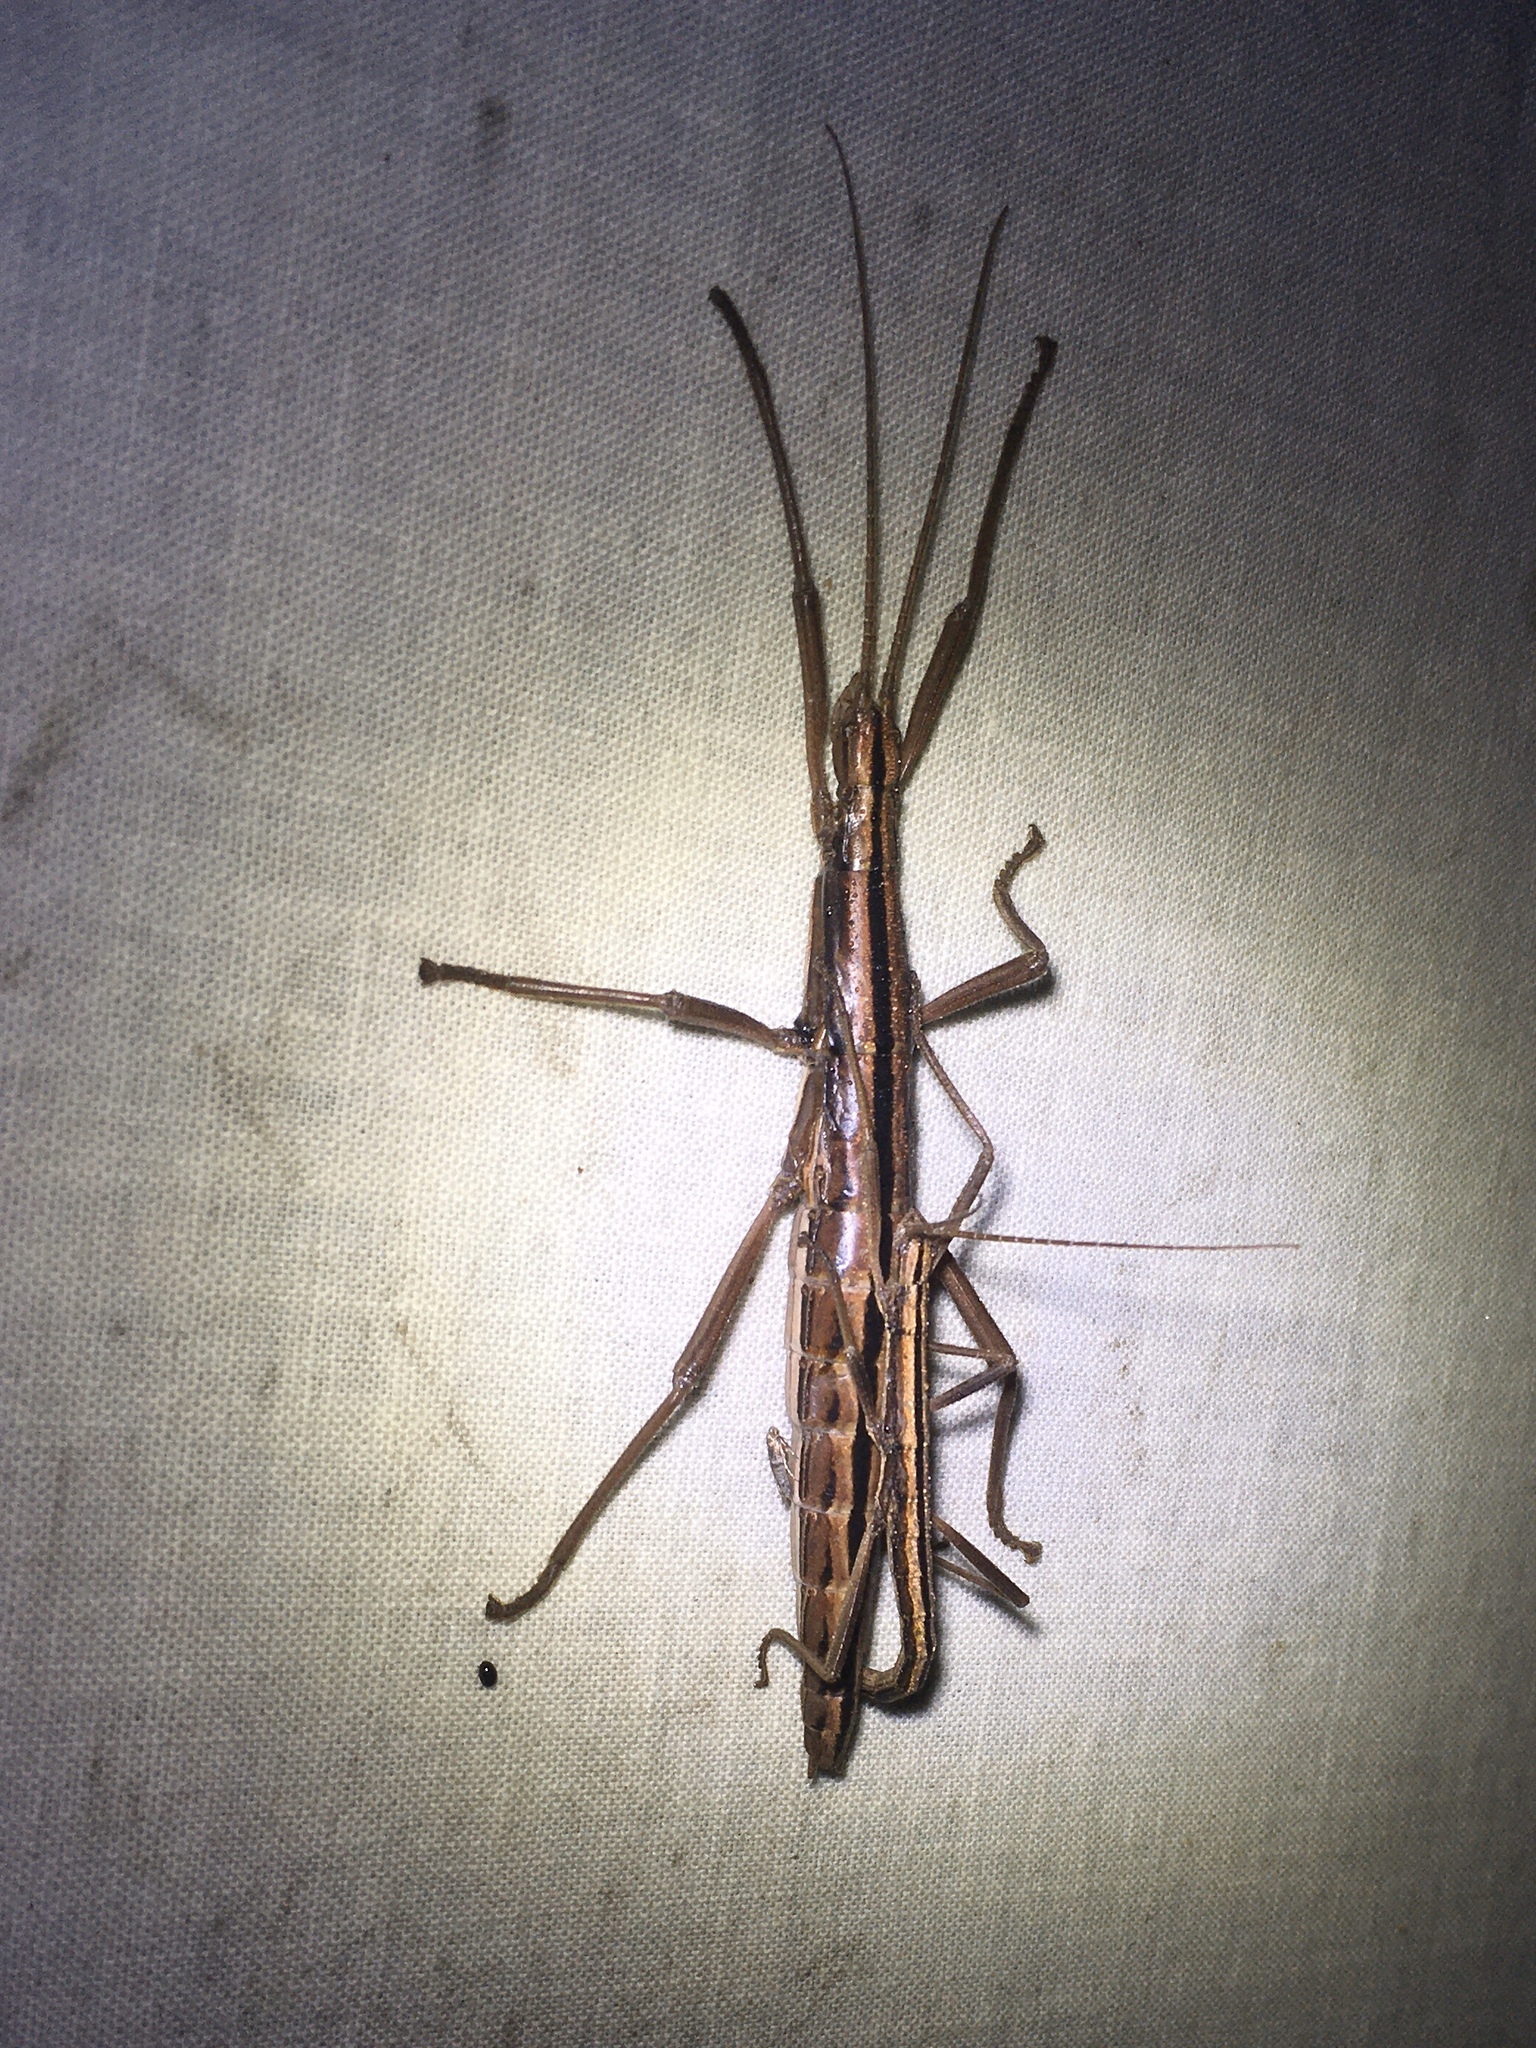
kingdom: Animalia
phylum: Arthropoda
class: Insecta
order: Phasmida
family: Pseudophasmatidae
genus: Anisomorpha
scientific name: Anisomorpha buprestoides
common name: Florida stick insect
